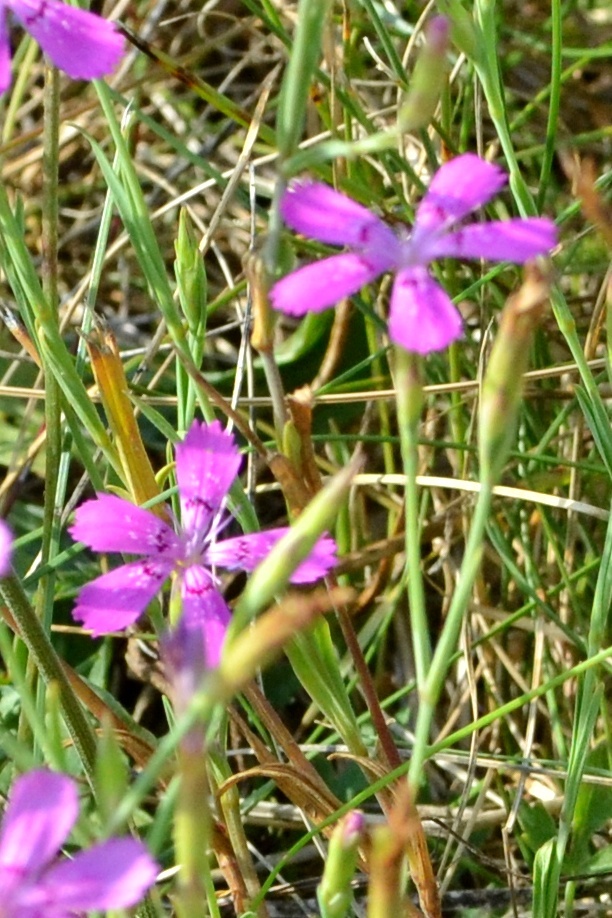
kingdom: Plantae
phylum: Tracheophyta
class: Magnoliopsida
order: Caryophyllales
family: Caryophyllaceae
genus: Dianthus
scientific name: Dianthus deltoides
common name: Maiden pink
